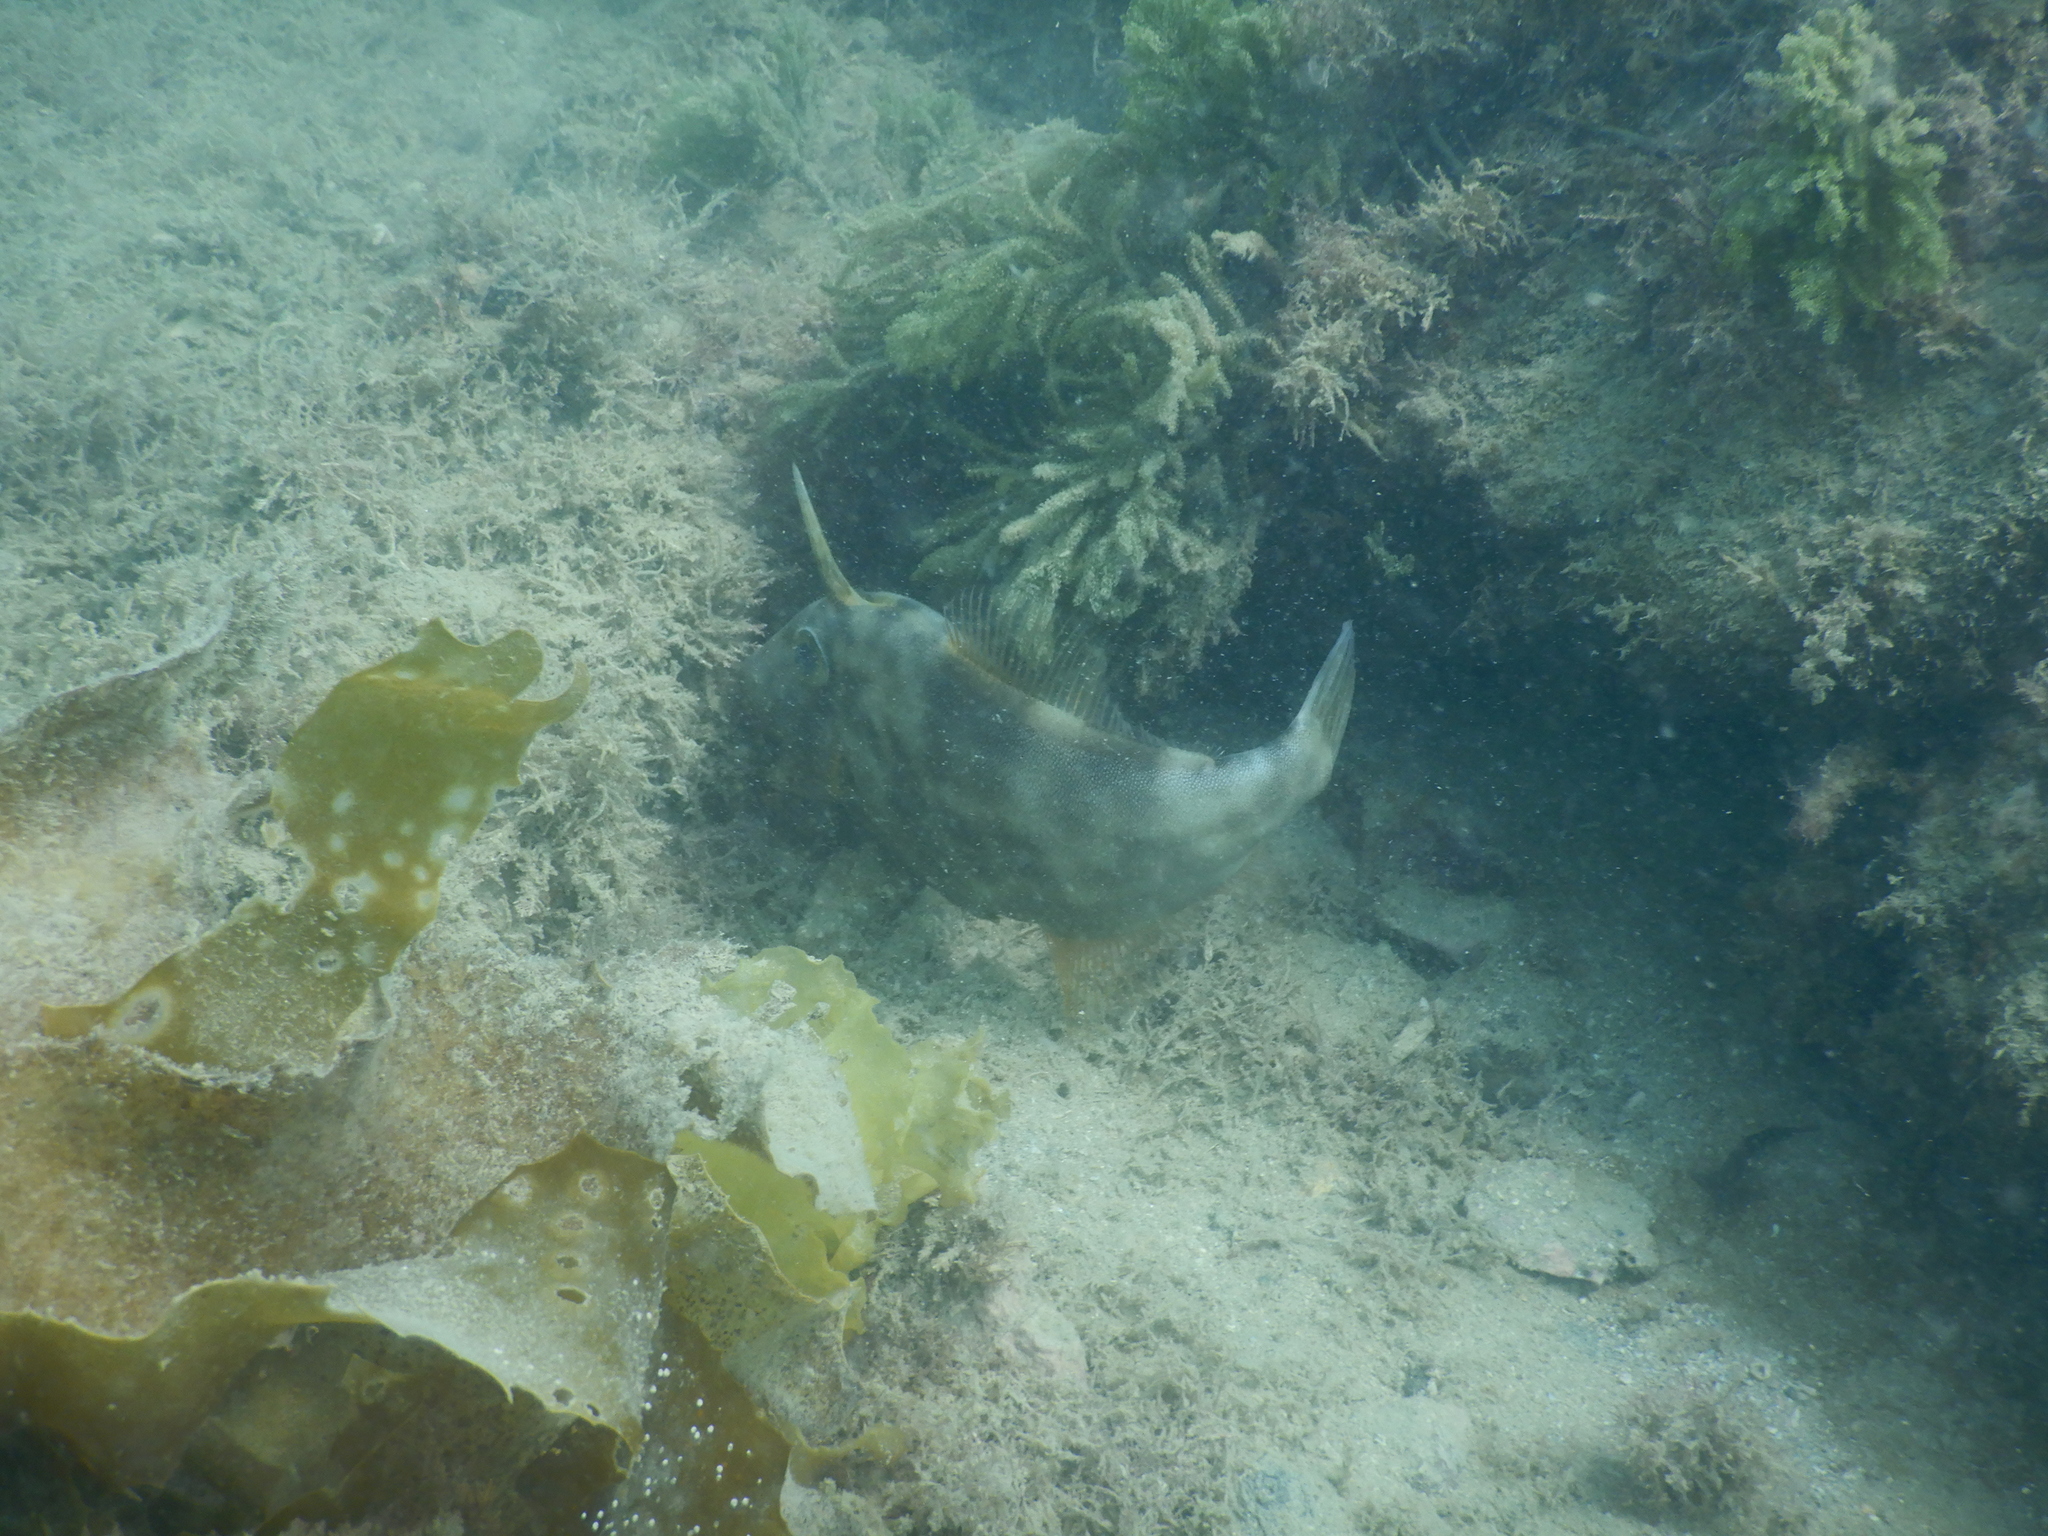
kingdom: Animalia
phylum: Chordata
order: Tetraodontiformes
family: Monacanthidae
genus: Meuschenia
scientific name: Meuschenia scaber
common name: Cosmopolitan leatherjacket
